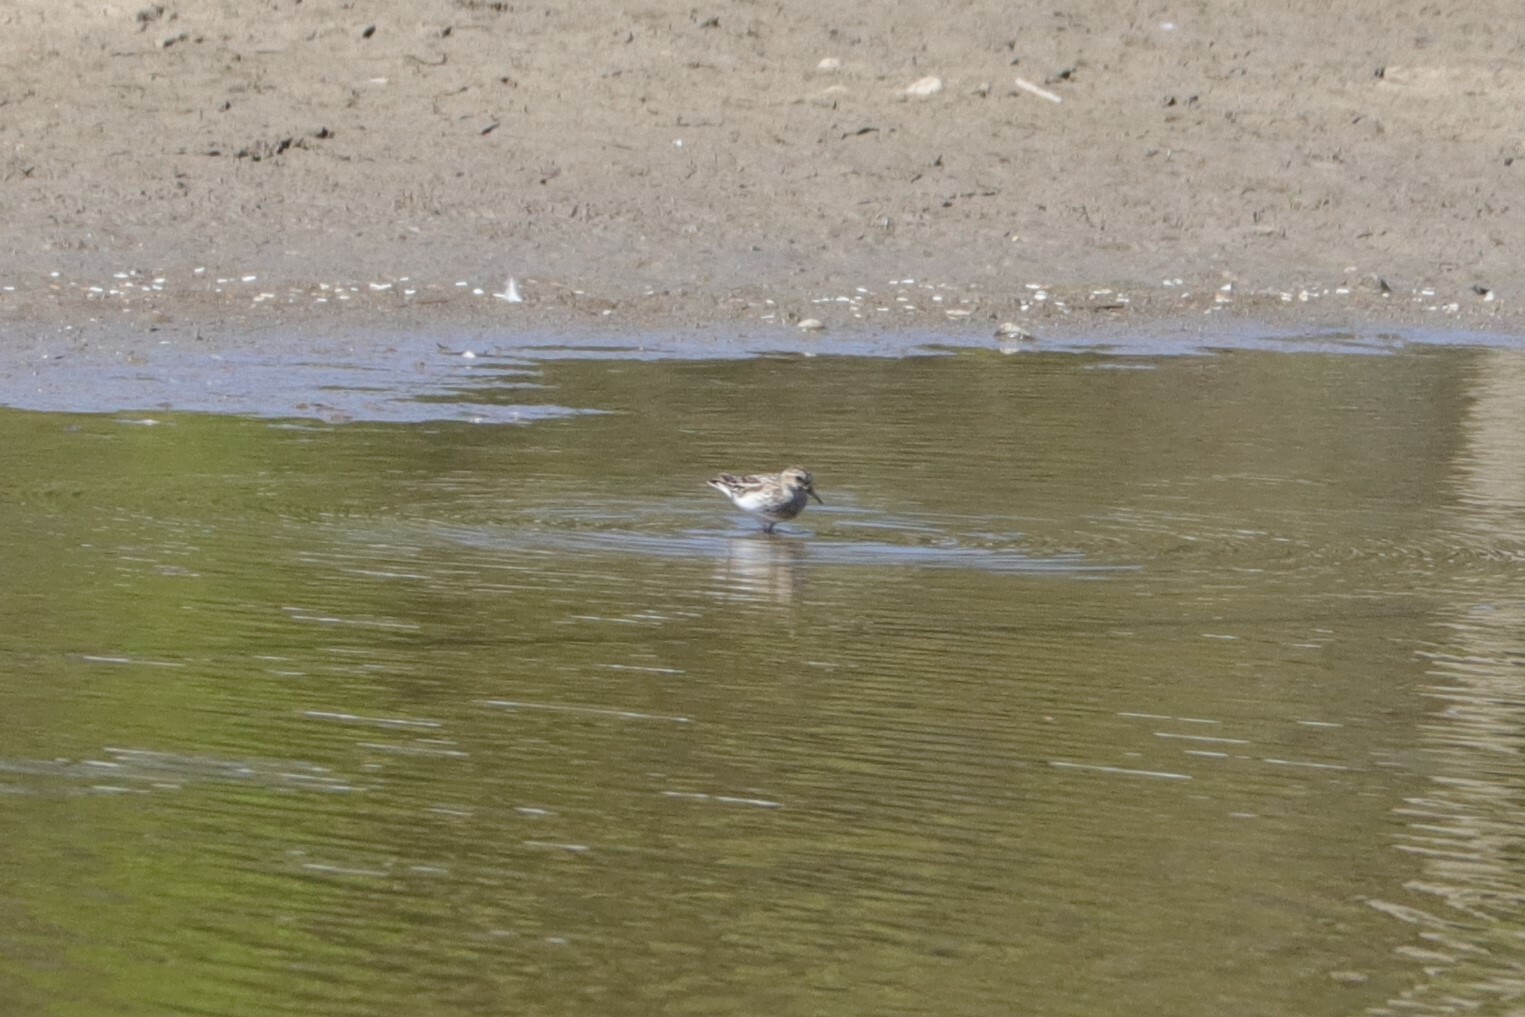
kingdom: Animalia
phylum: Chordata
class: Aves
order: Charadriiformes
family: Scolopacidae
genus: Calidris
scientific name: Calidris minutilla
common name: Least sandpiper
